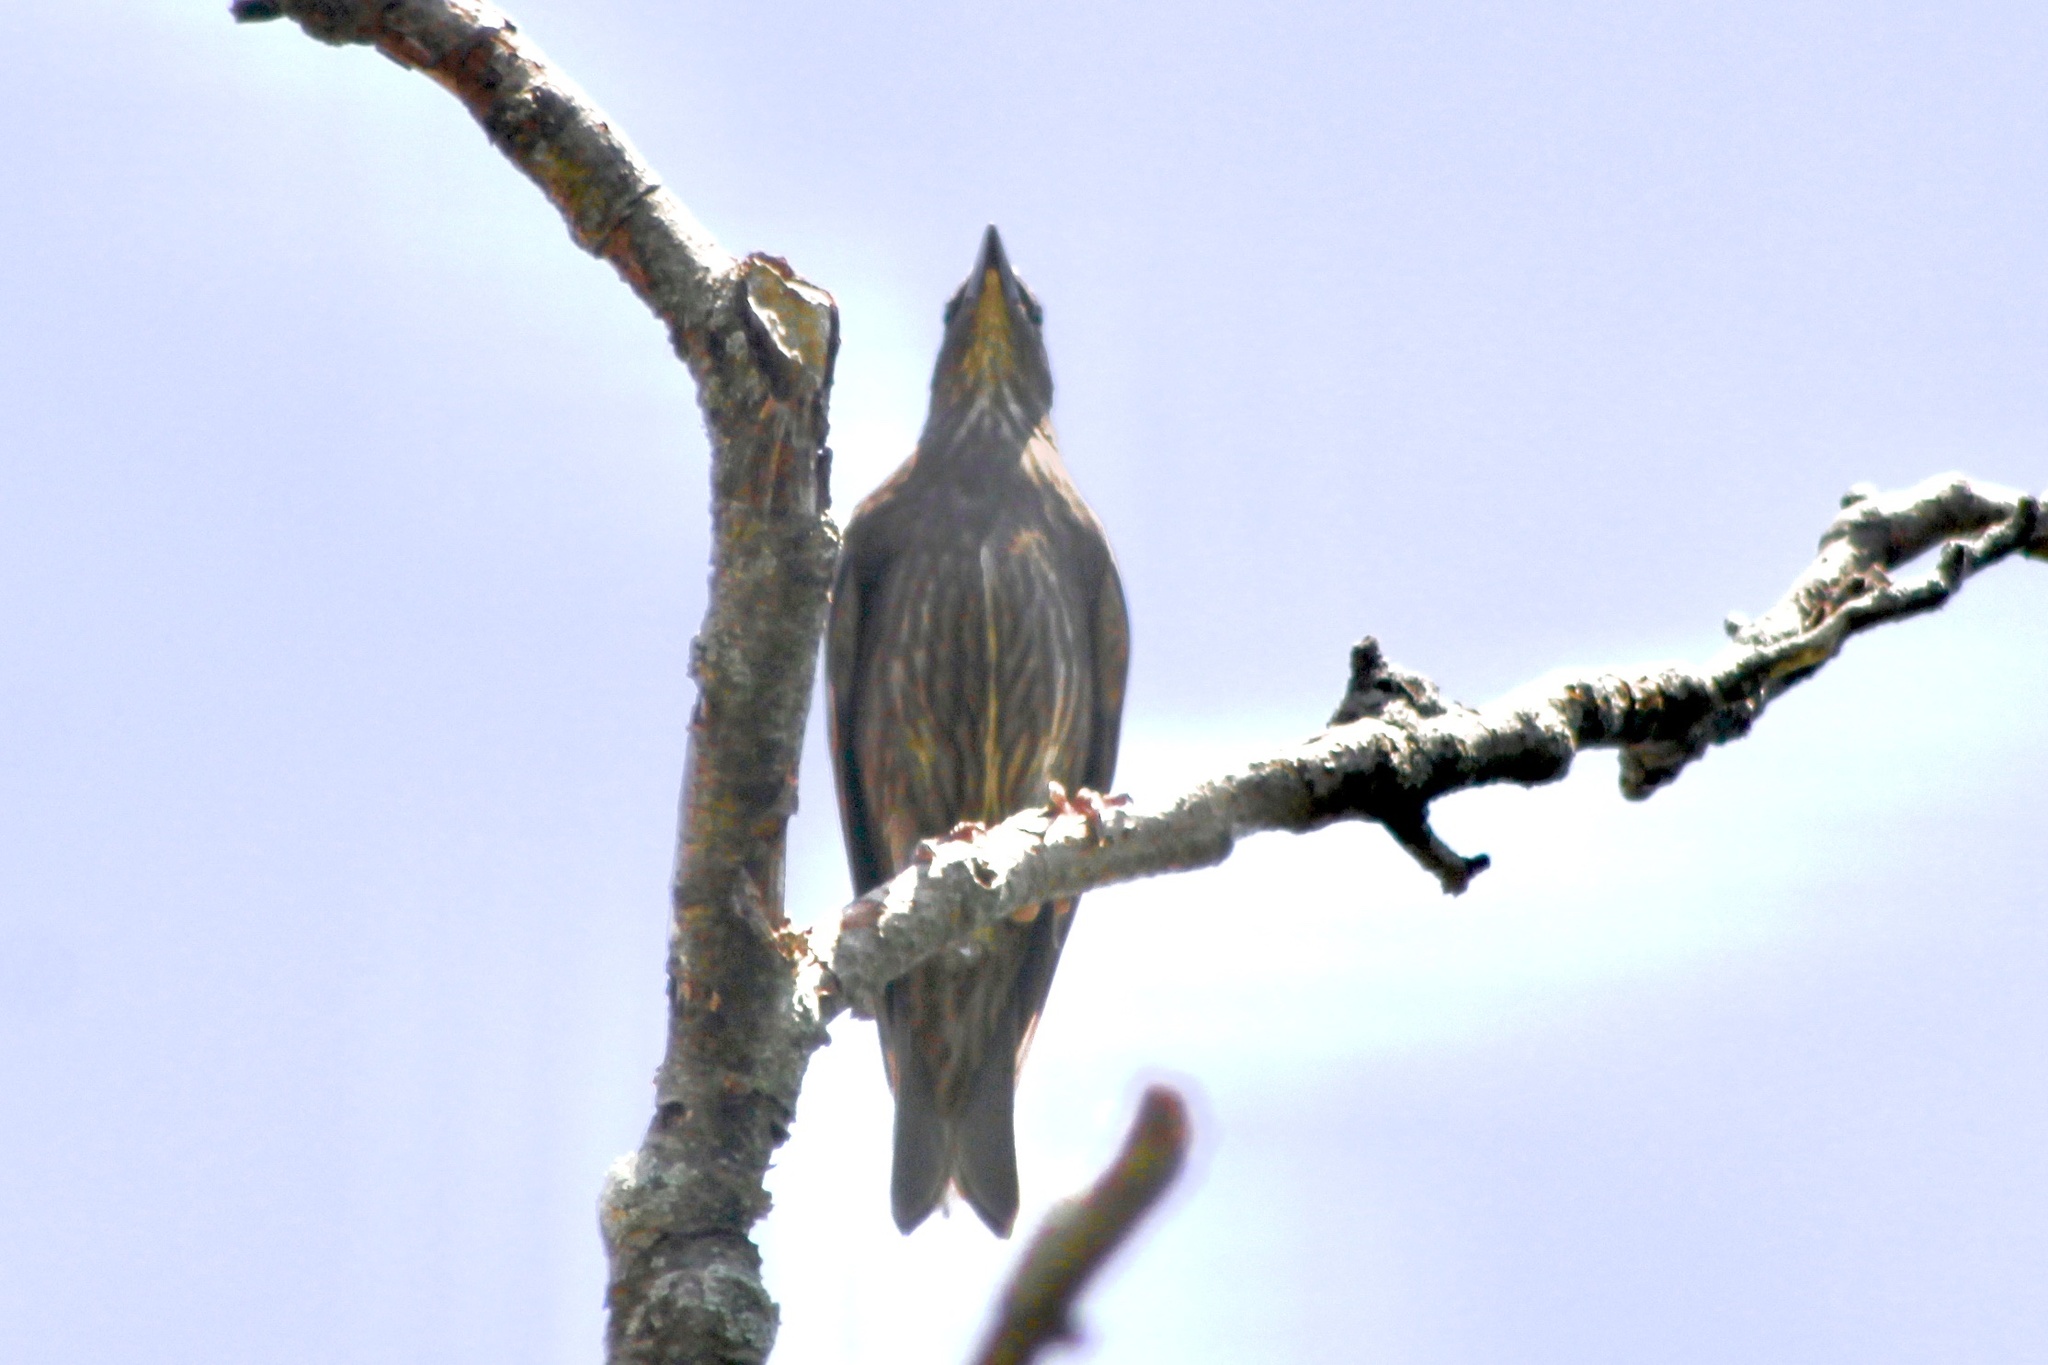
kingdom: Animalia
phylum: Chordata
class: Aves
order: Passeriformes
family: Sturnidae
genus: Sturnus
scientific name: Sturnus vulgaris
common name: Common starling
